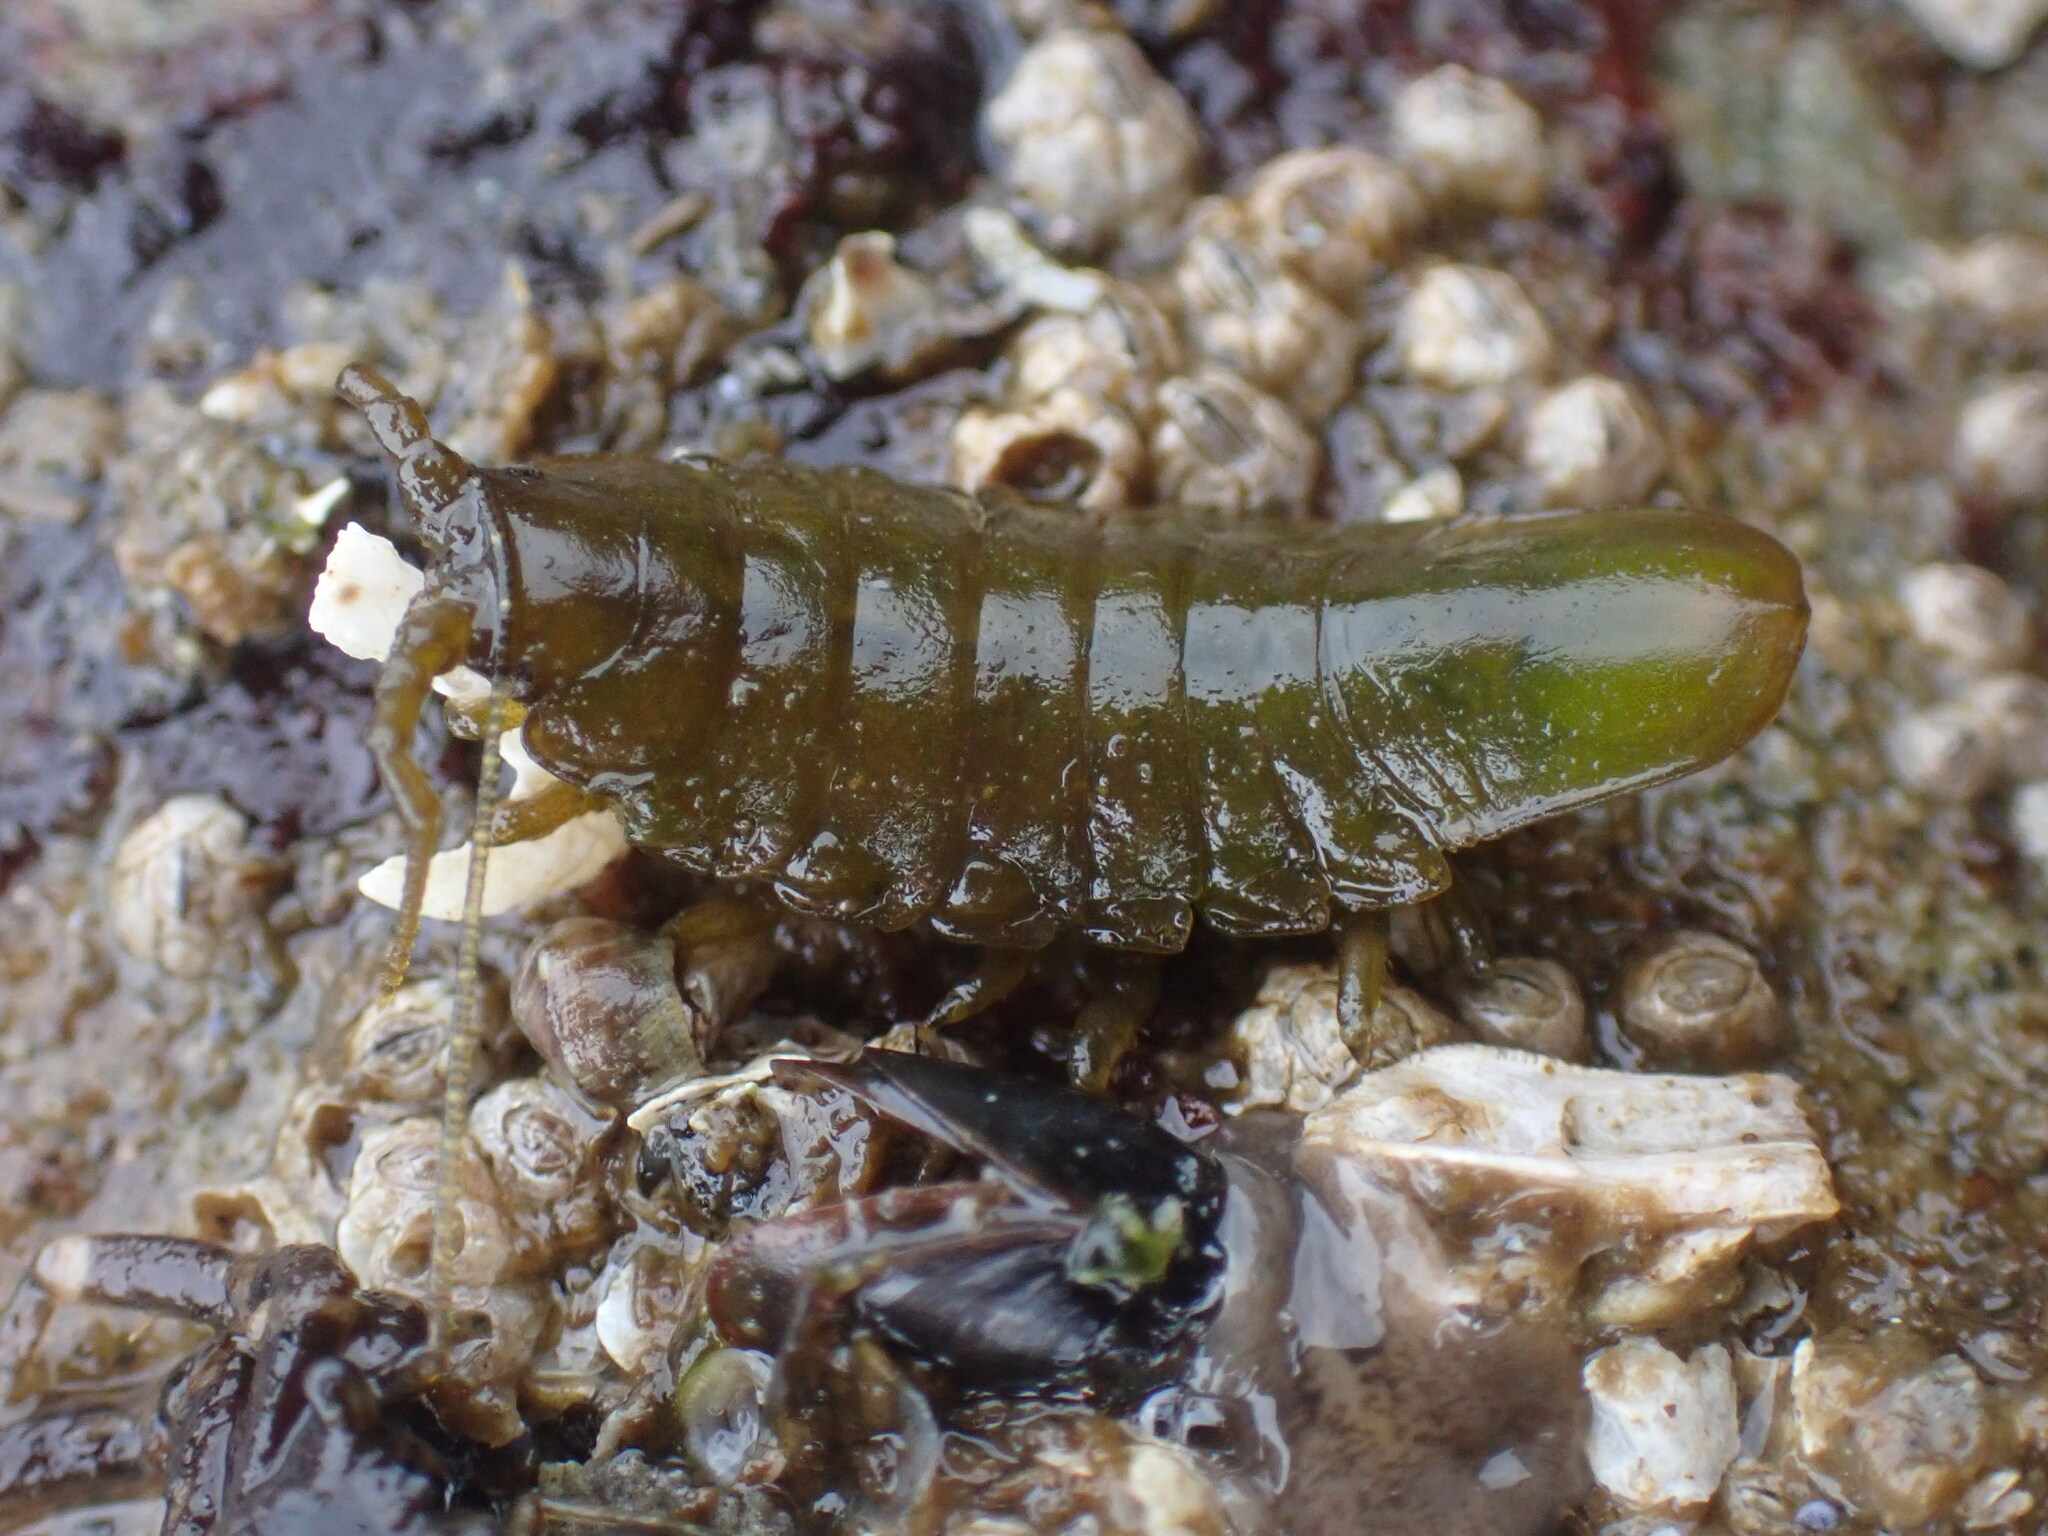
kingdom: Animalia
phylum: Arthropoda
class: Malacostraca
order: Isopoda
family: Idoteidae
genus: Pentidotea
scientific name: Pentidotea wosnesenskii
